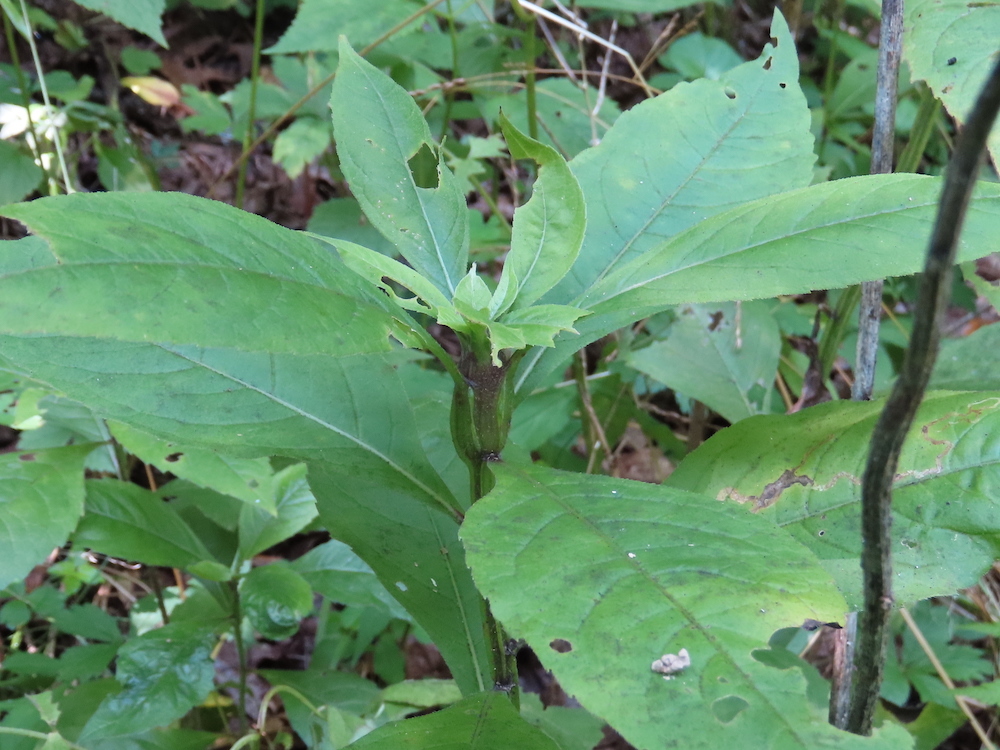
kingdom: Animalia
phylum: Arthropoda
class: Insecta
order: Diptera
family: Cecidomyiidae
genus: Neolasioptera
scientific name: Neolasioptera verbesinae
